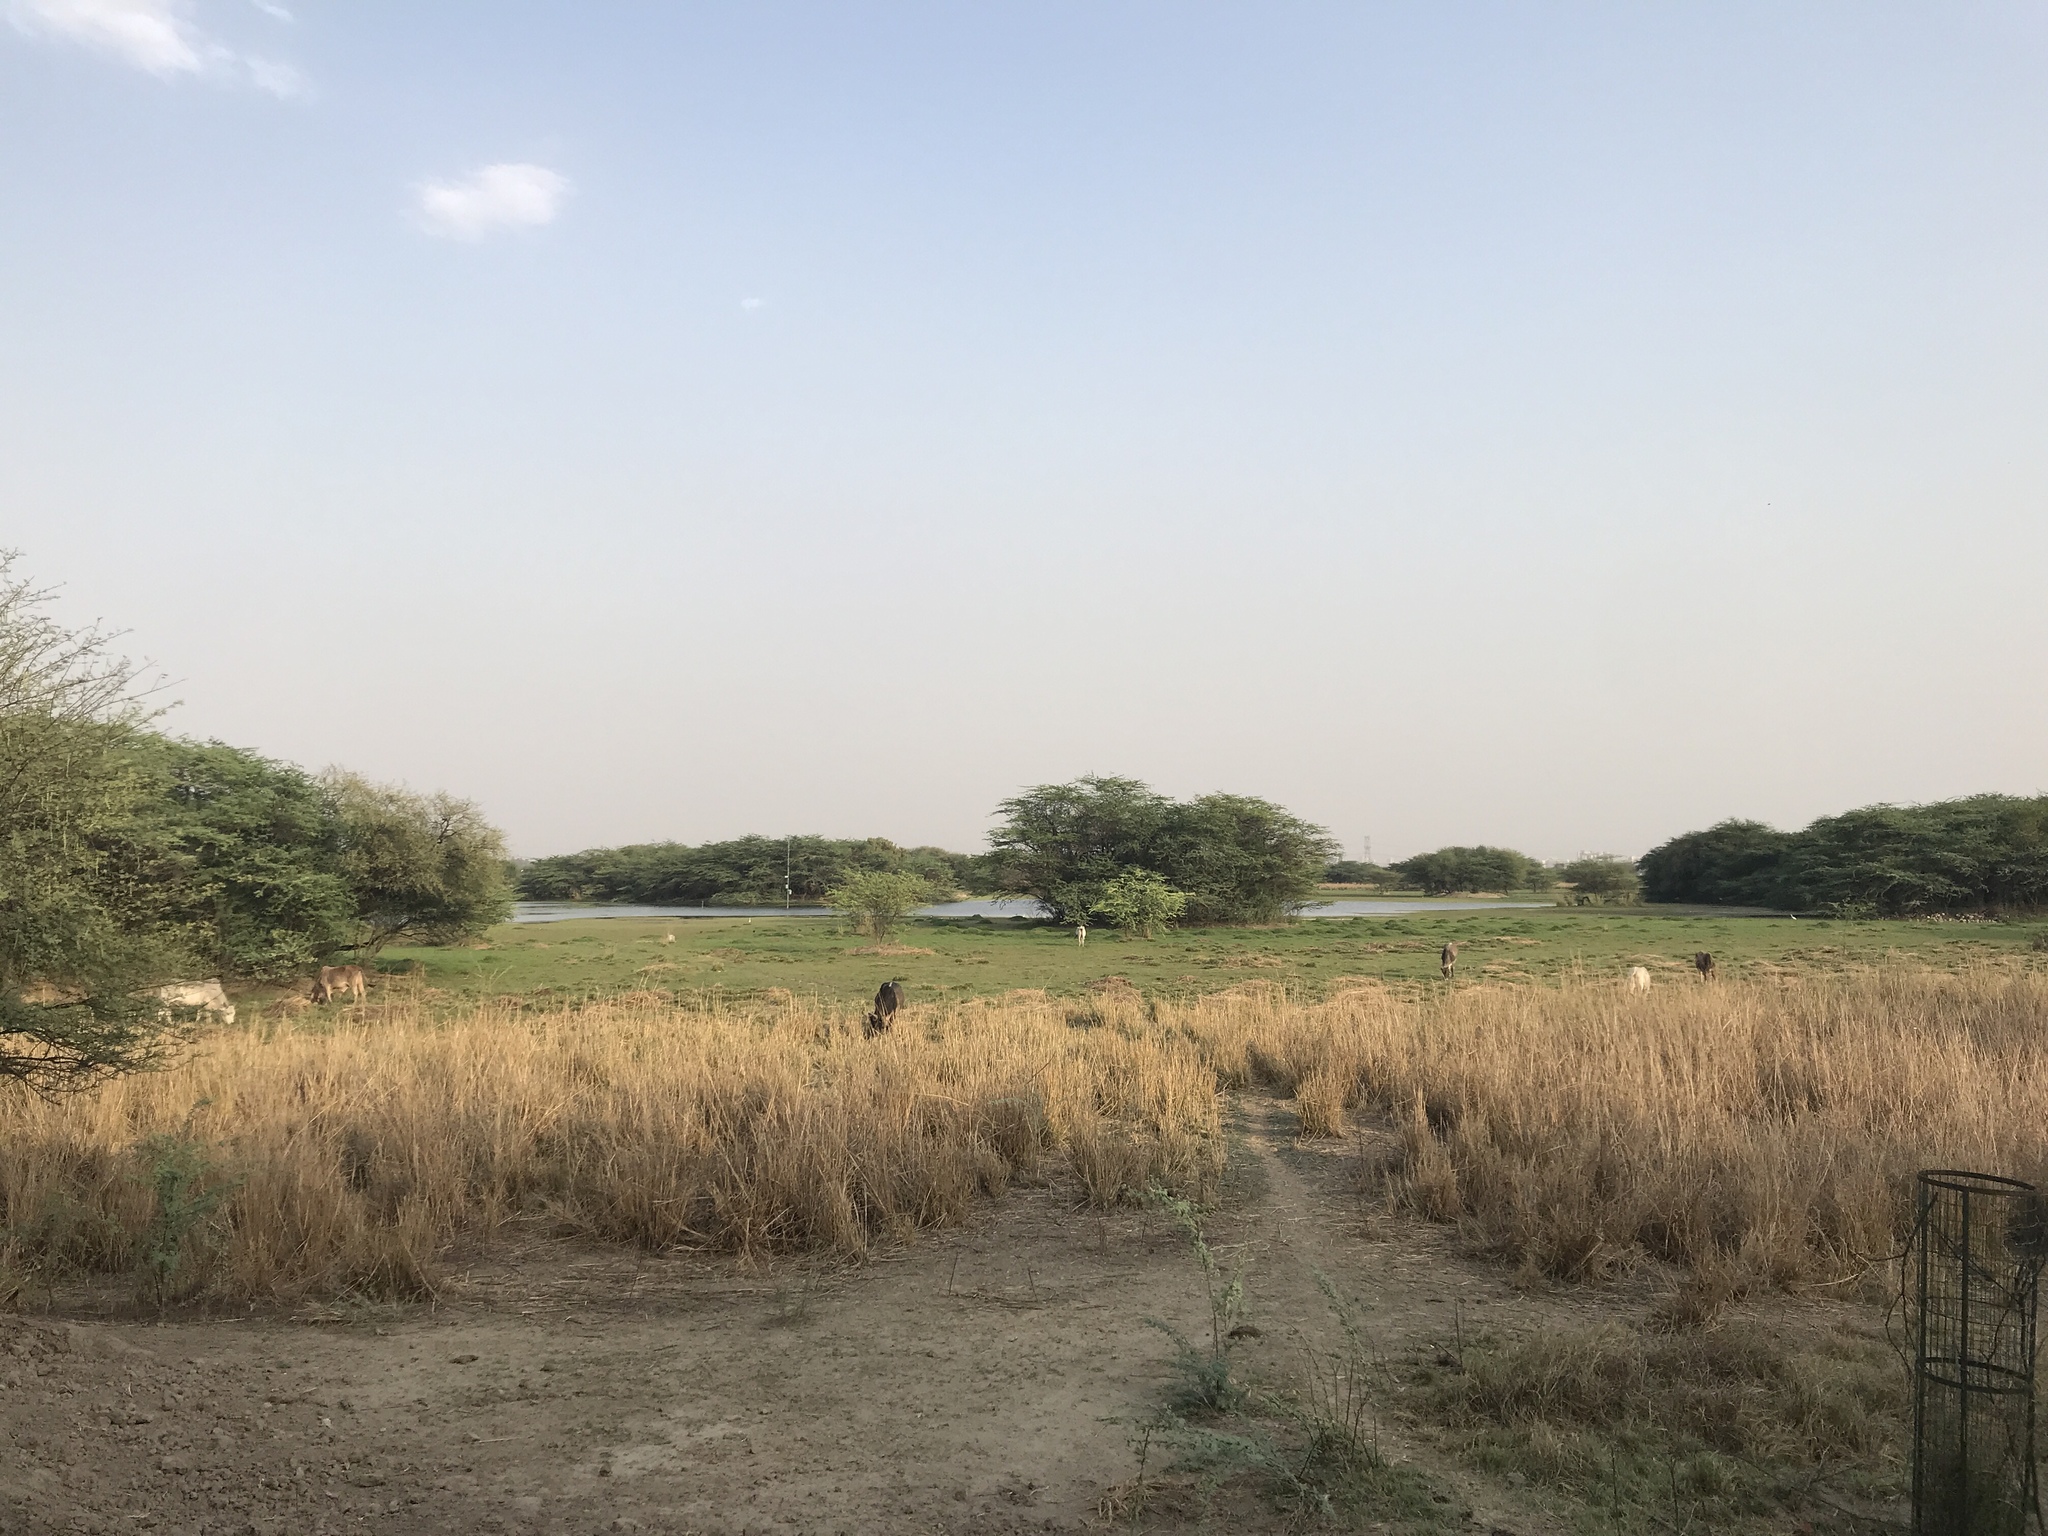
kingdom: Animalia
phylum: Chordata
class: Mammalia
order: Artiodactyla
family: Bovidae
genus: Bos
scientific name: Bos taurus
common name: Domesticated cattle
